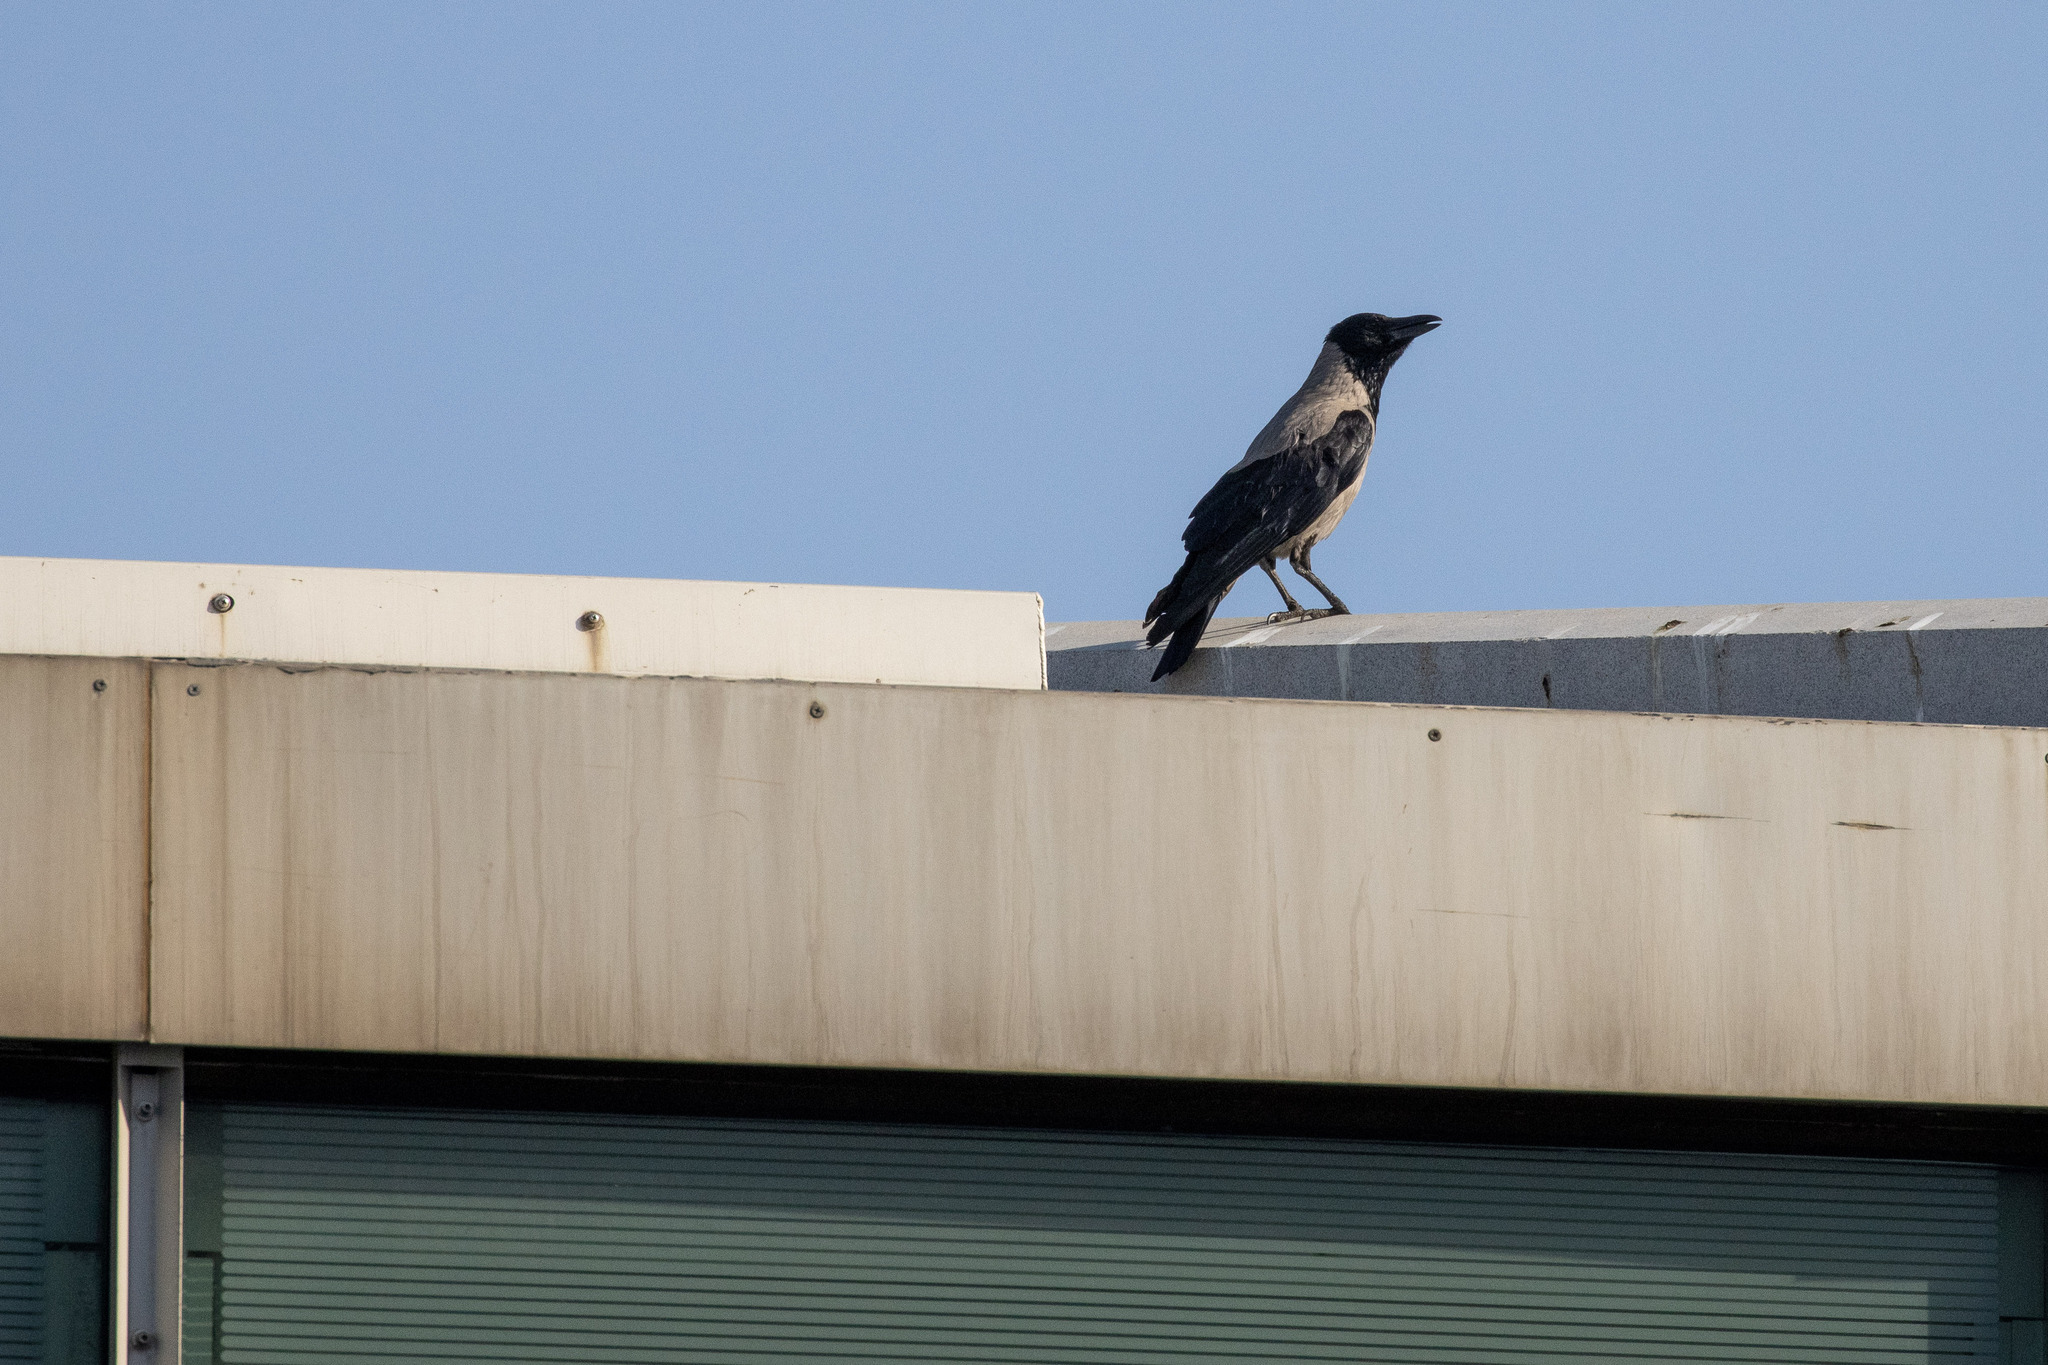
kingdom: Animalia
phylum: Chordata
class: Aves
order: Passeriformes
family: Corvidae
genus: Corvus
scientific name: Corvus cornix
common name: Hooded crow
